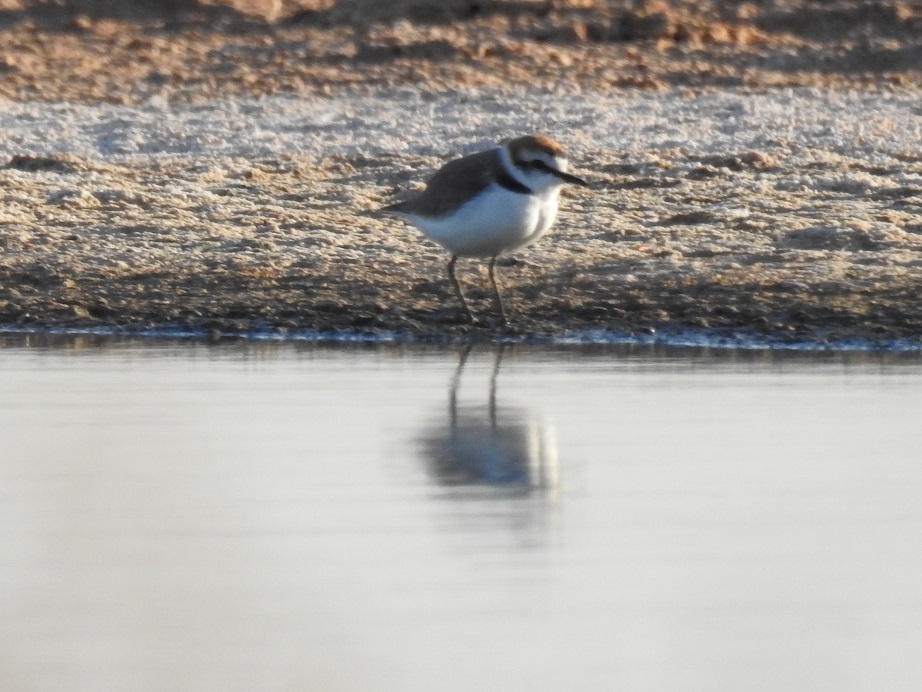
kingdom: Animalia
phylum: Chordata
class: Aves
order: Charadriiformes
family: Charadriidae
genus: Charadrius
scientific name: Charadrius alexandrinus
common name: Kentish plover
